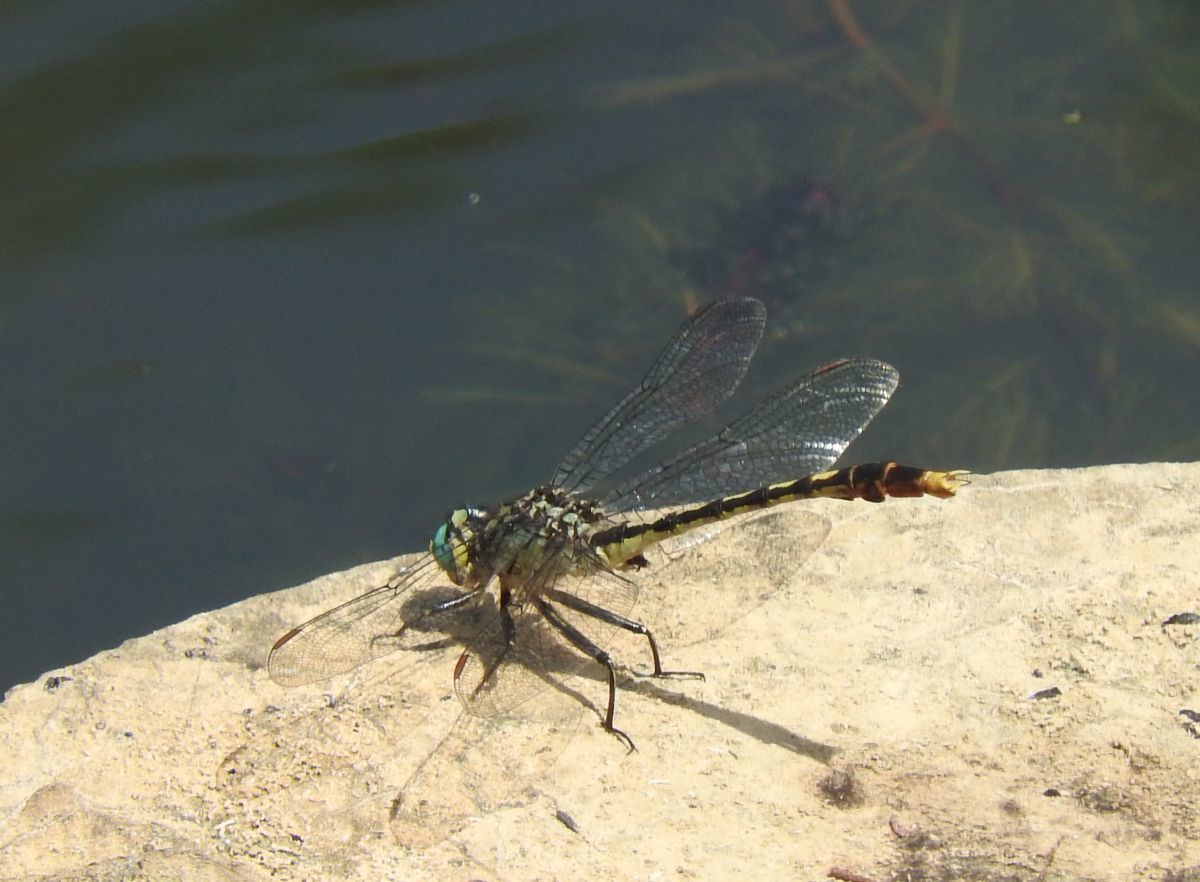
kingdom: Animalia
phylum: Arthropoda
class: Insecta
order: Odonata
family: Gomphidae
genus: Arigomphus
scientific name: Arigomphus villosipes
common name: Unicorn clubtail
